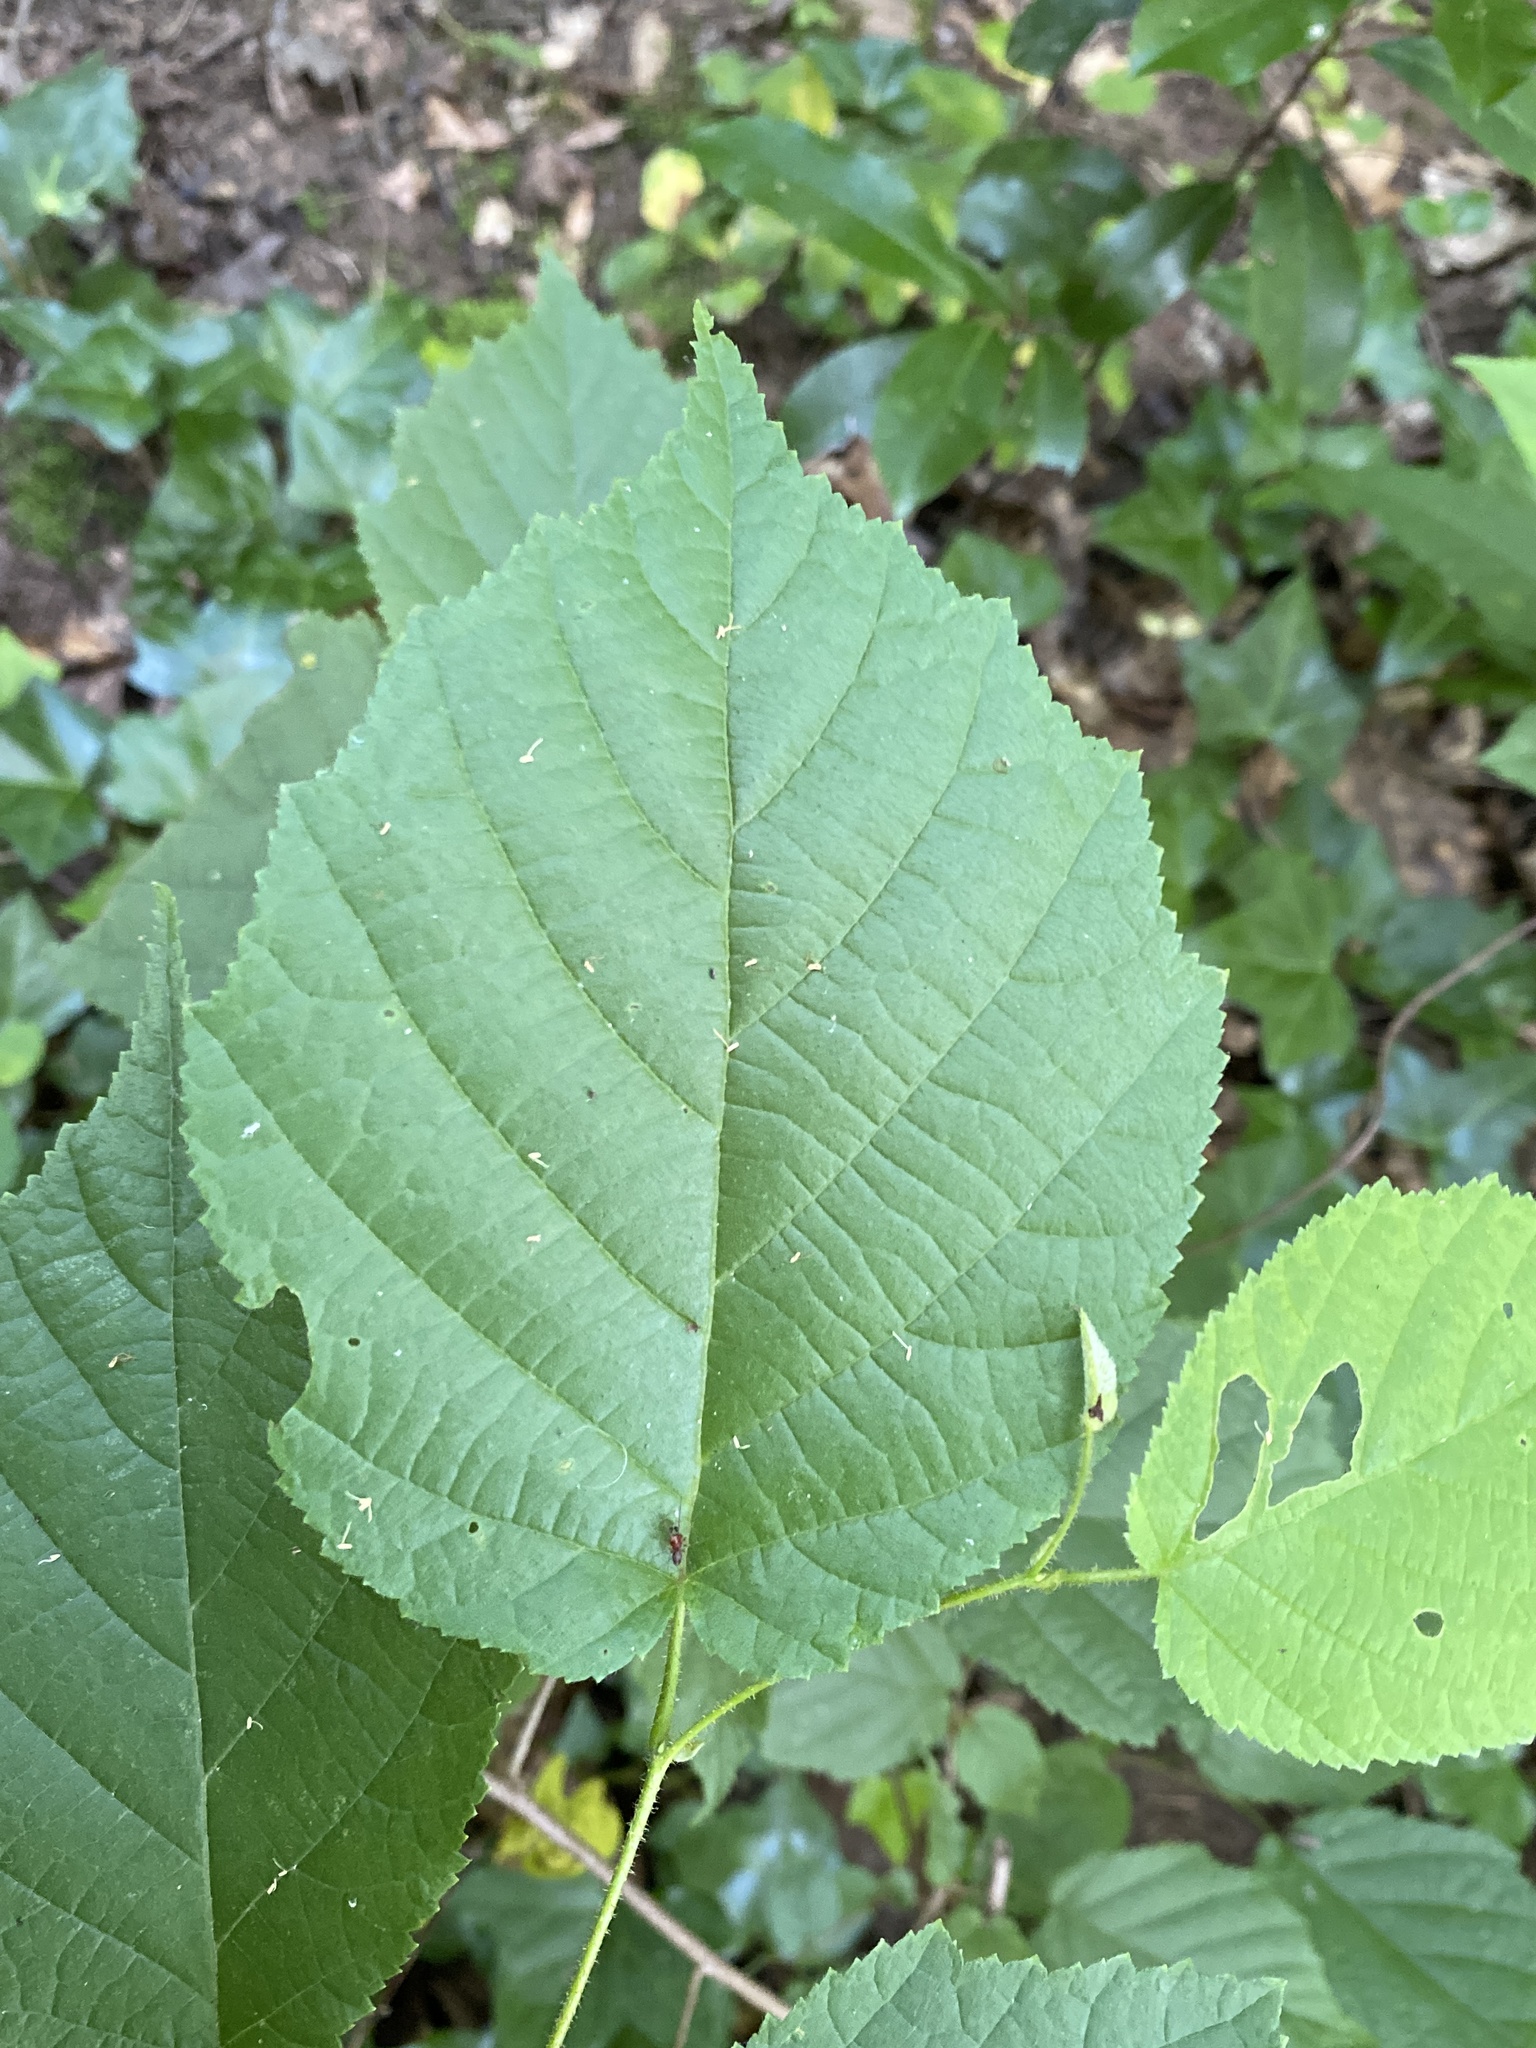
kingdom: Plantae
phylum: Tracheophyta
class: Magnoliopsida
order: Fagales
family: Betulaceae
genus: Corylus
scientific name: Corylus americana
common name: American hazel
